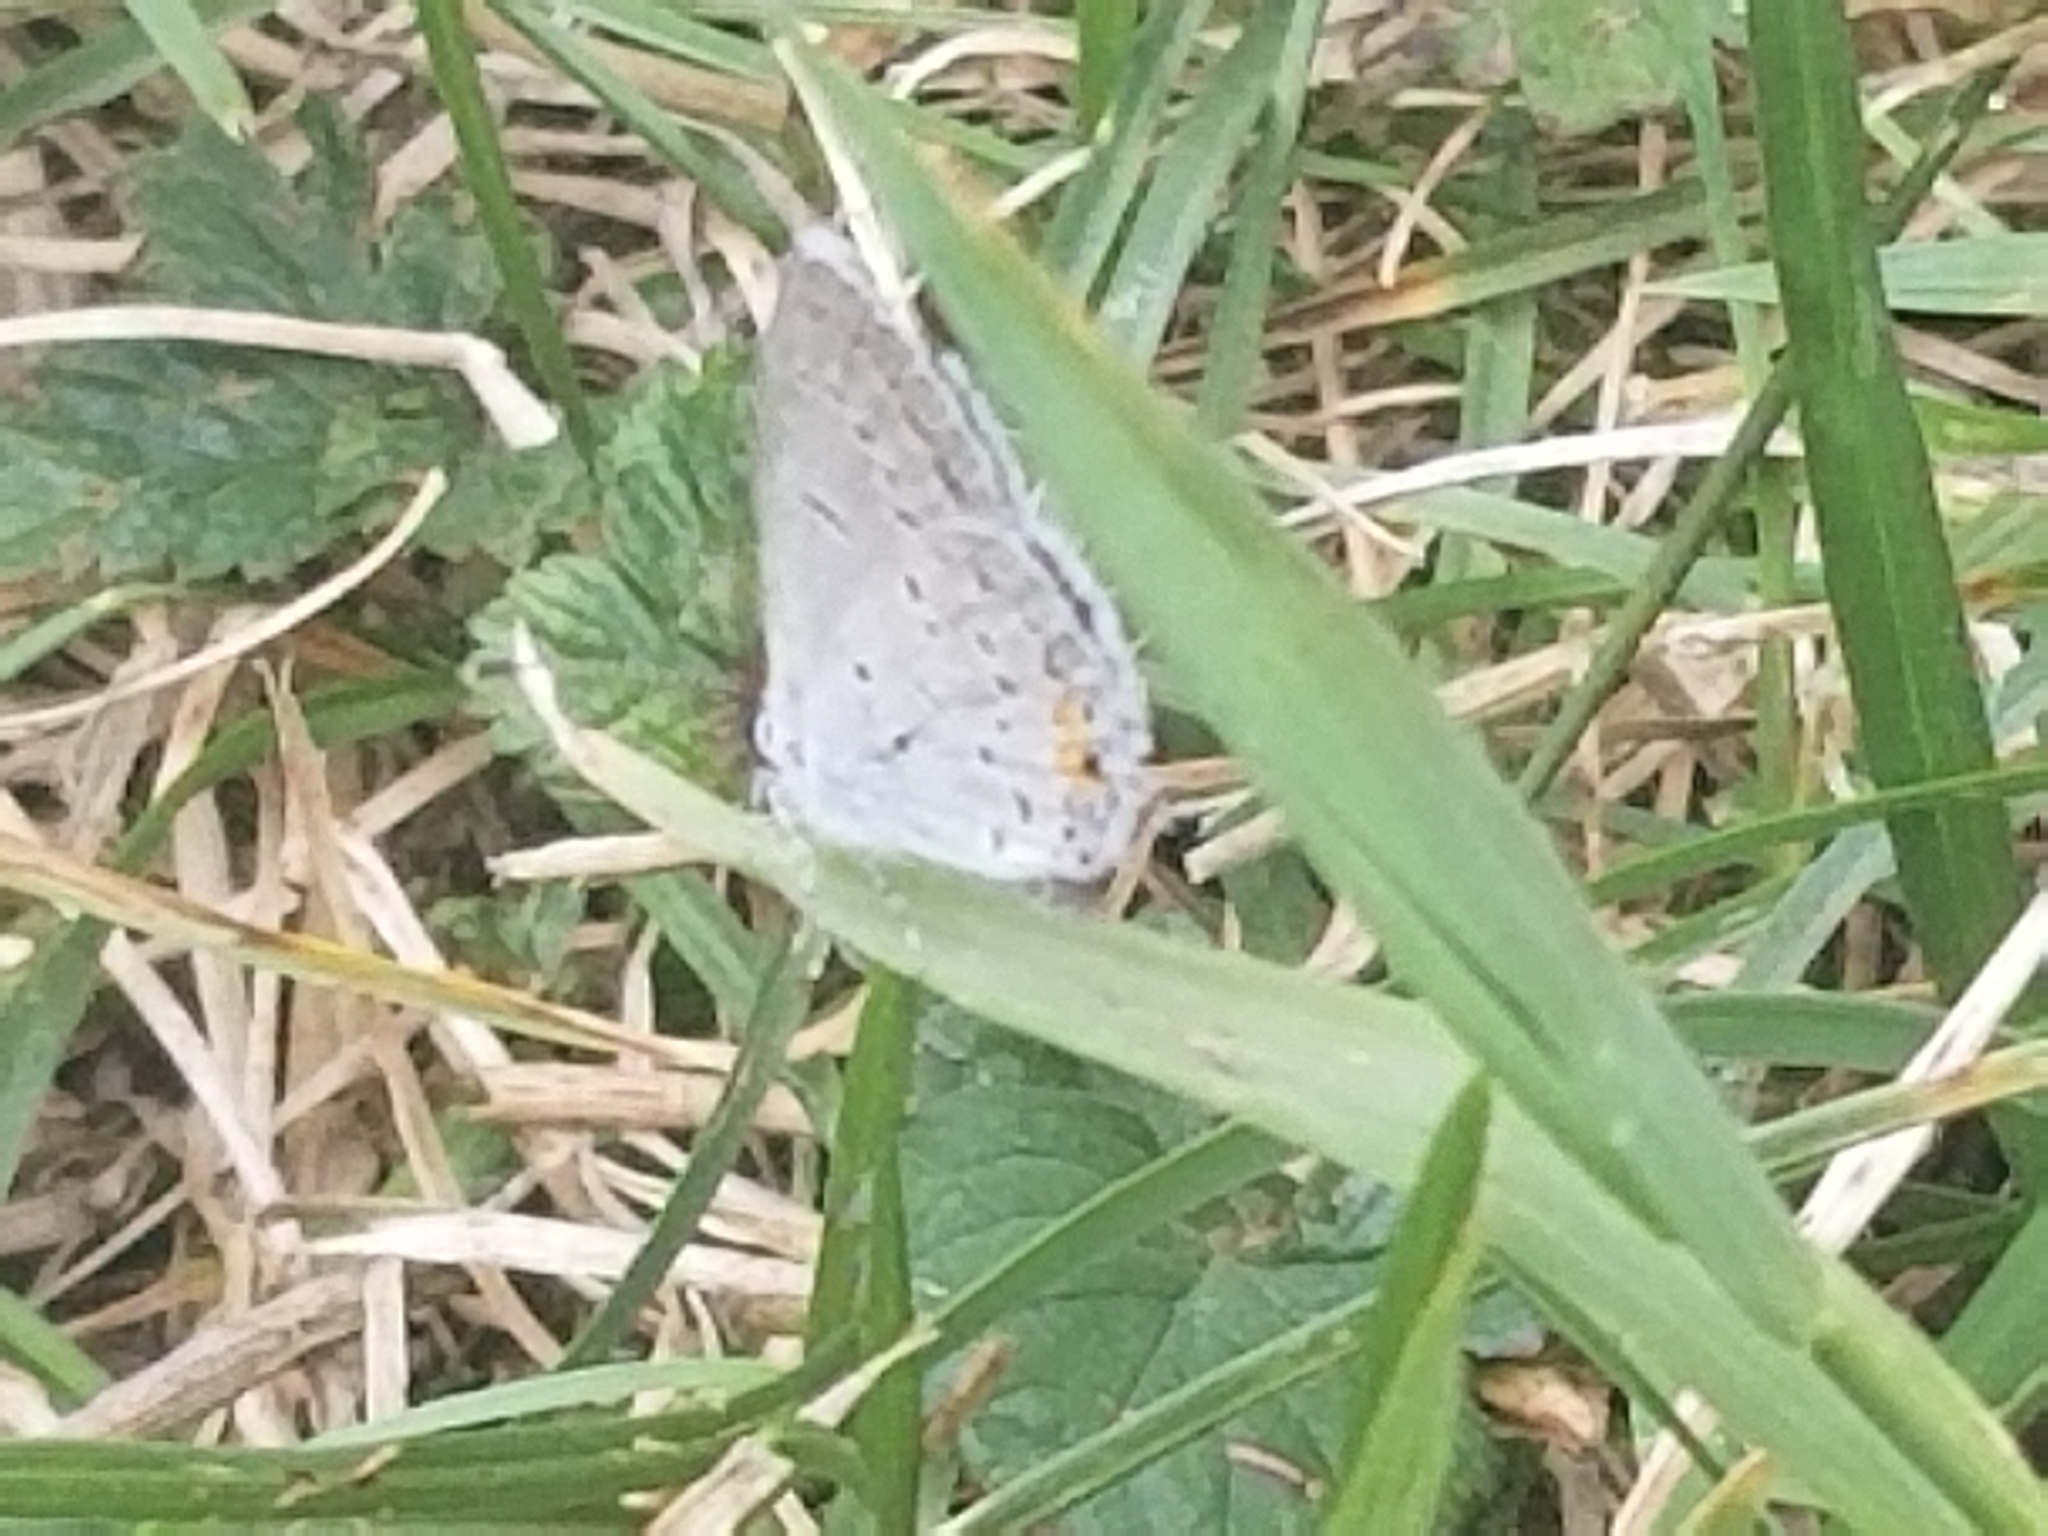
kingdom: Animalia
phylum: Arthropoda
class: Insecta
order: Lepidoptera
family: Lycaenidae
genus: Elkalyce
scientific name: Elkalyce comyntas
